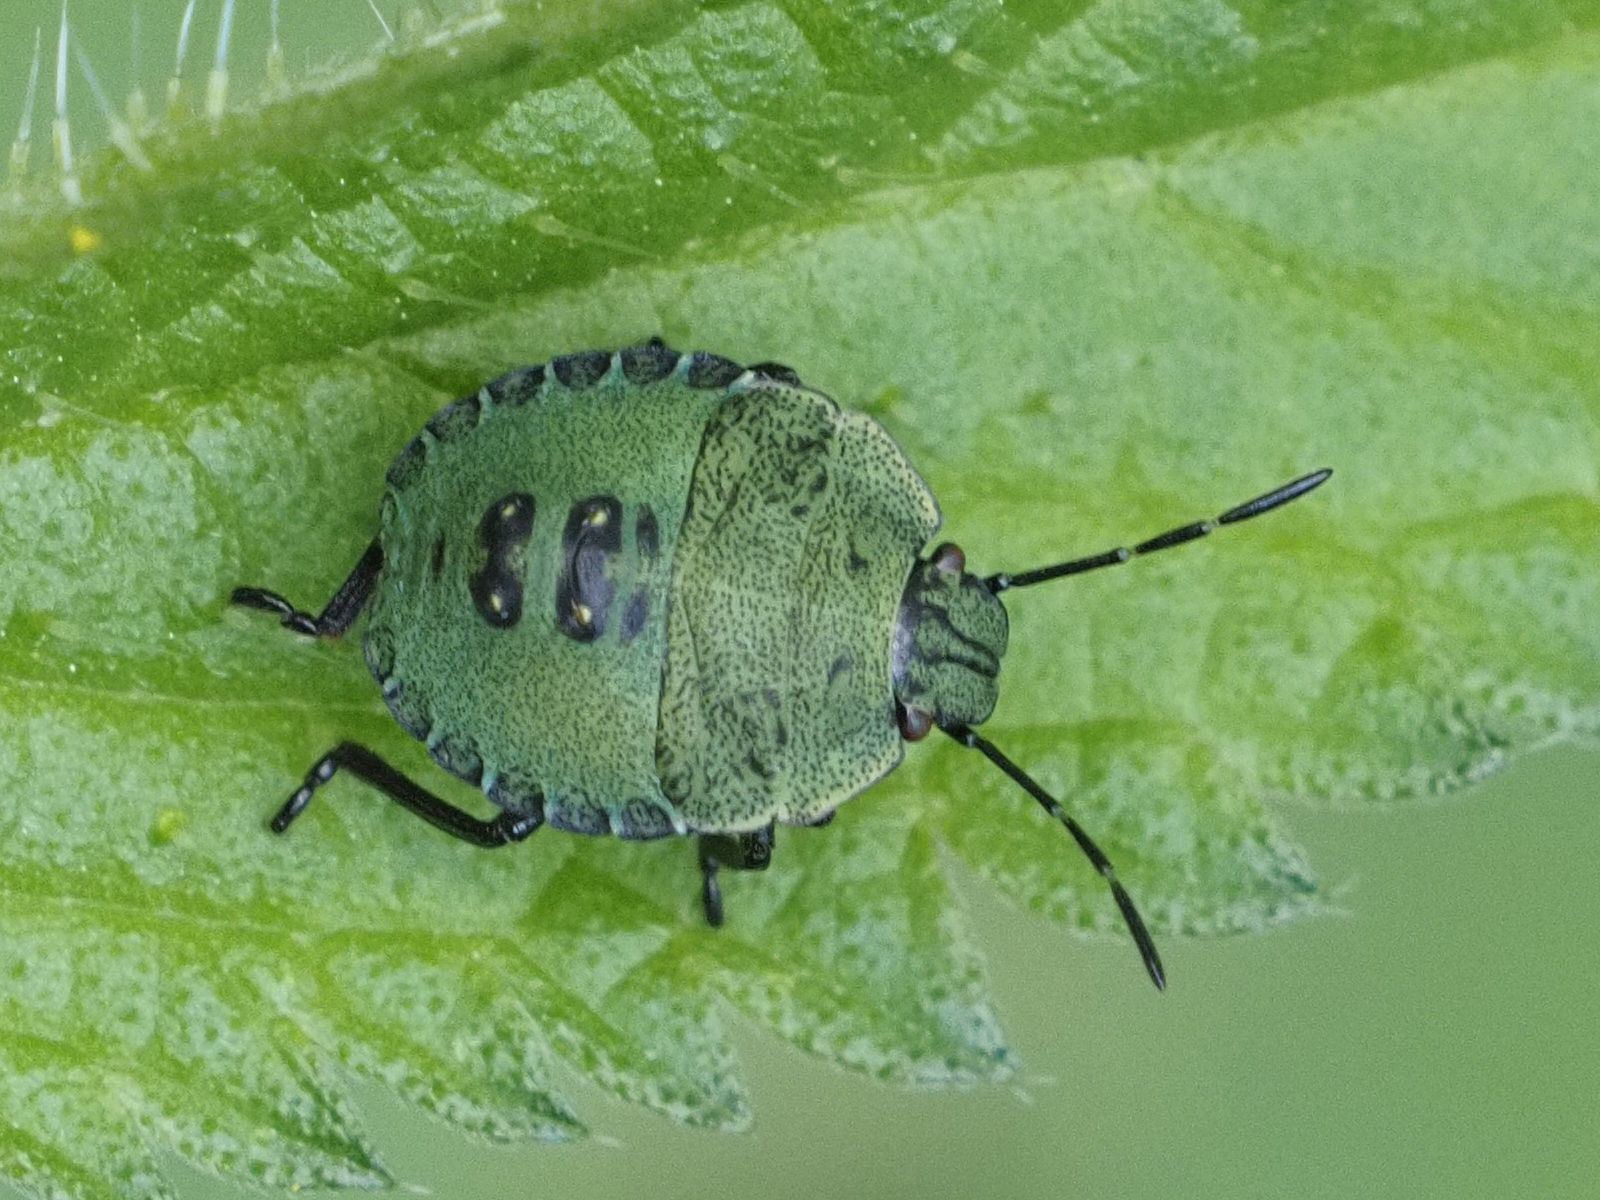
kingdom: Animalia
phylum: Arthropoda
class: Insecta
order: Hemiptera
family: Pentatomidae
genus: Palomena
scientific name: Palomena prasina
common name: Green shieldbug
